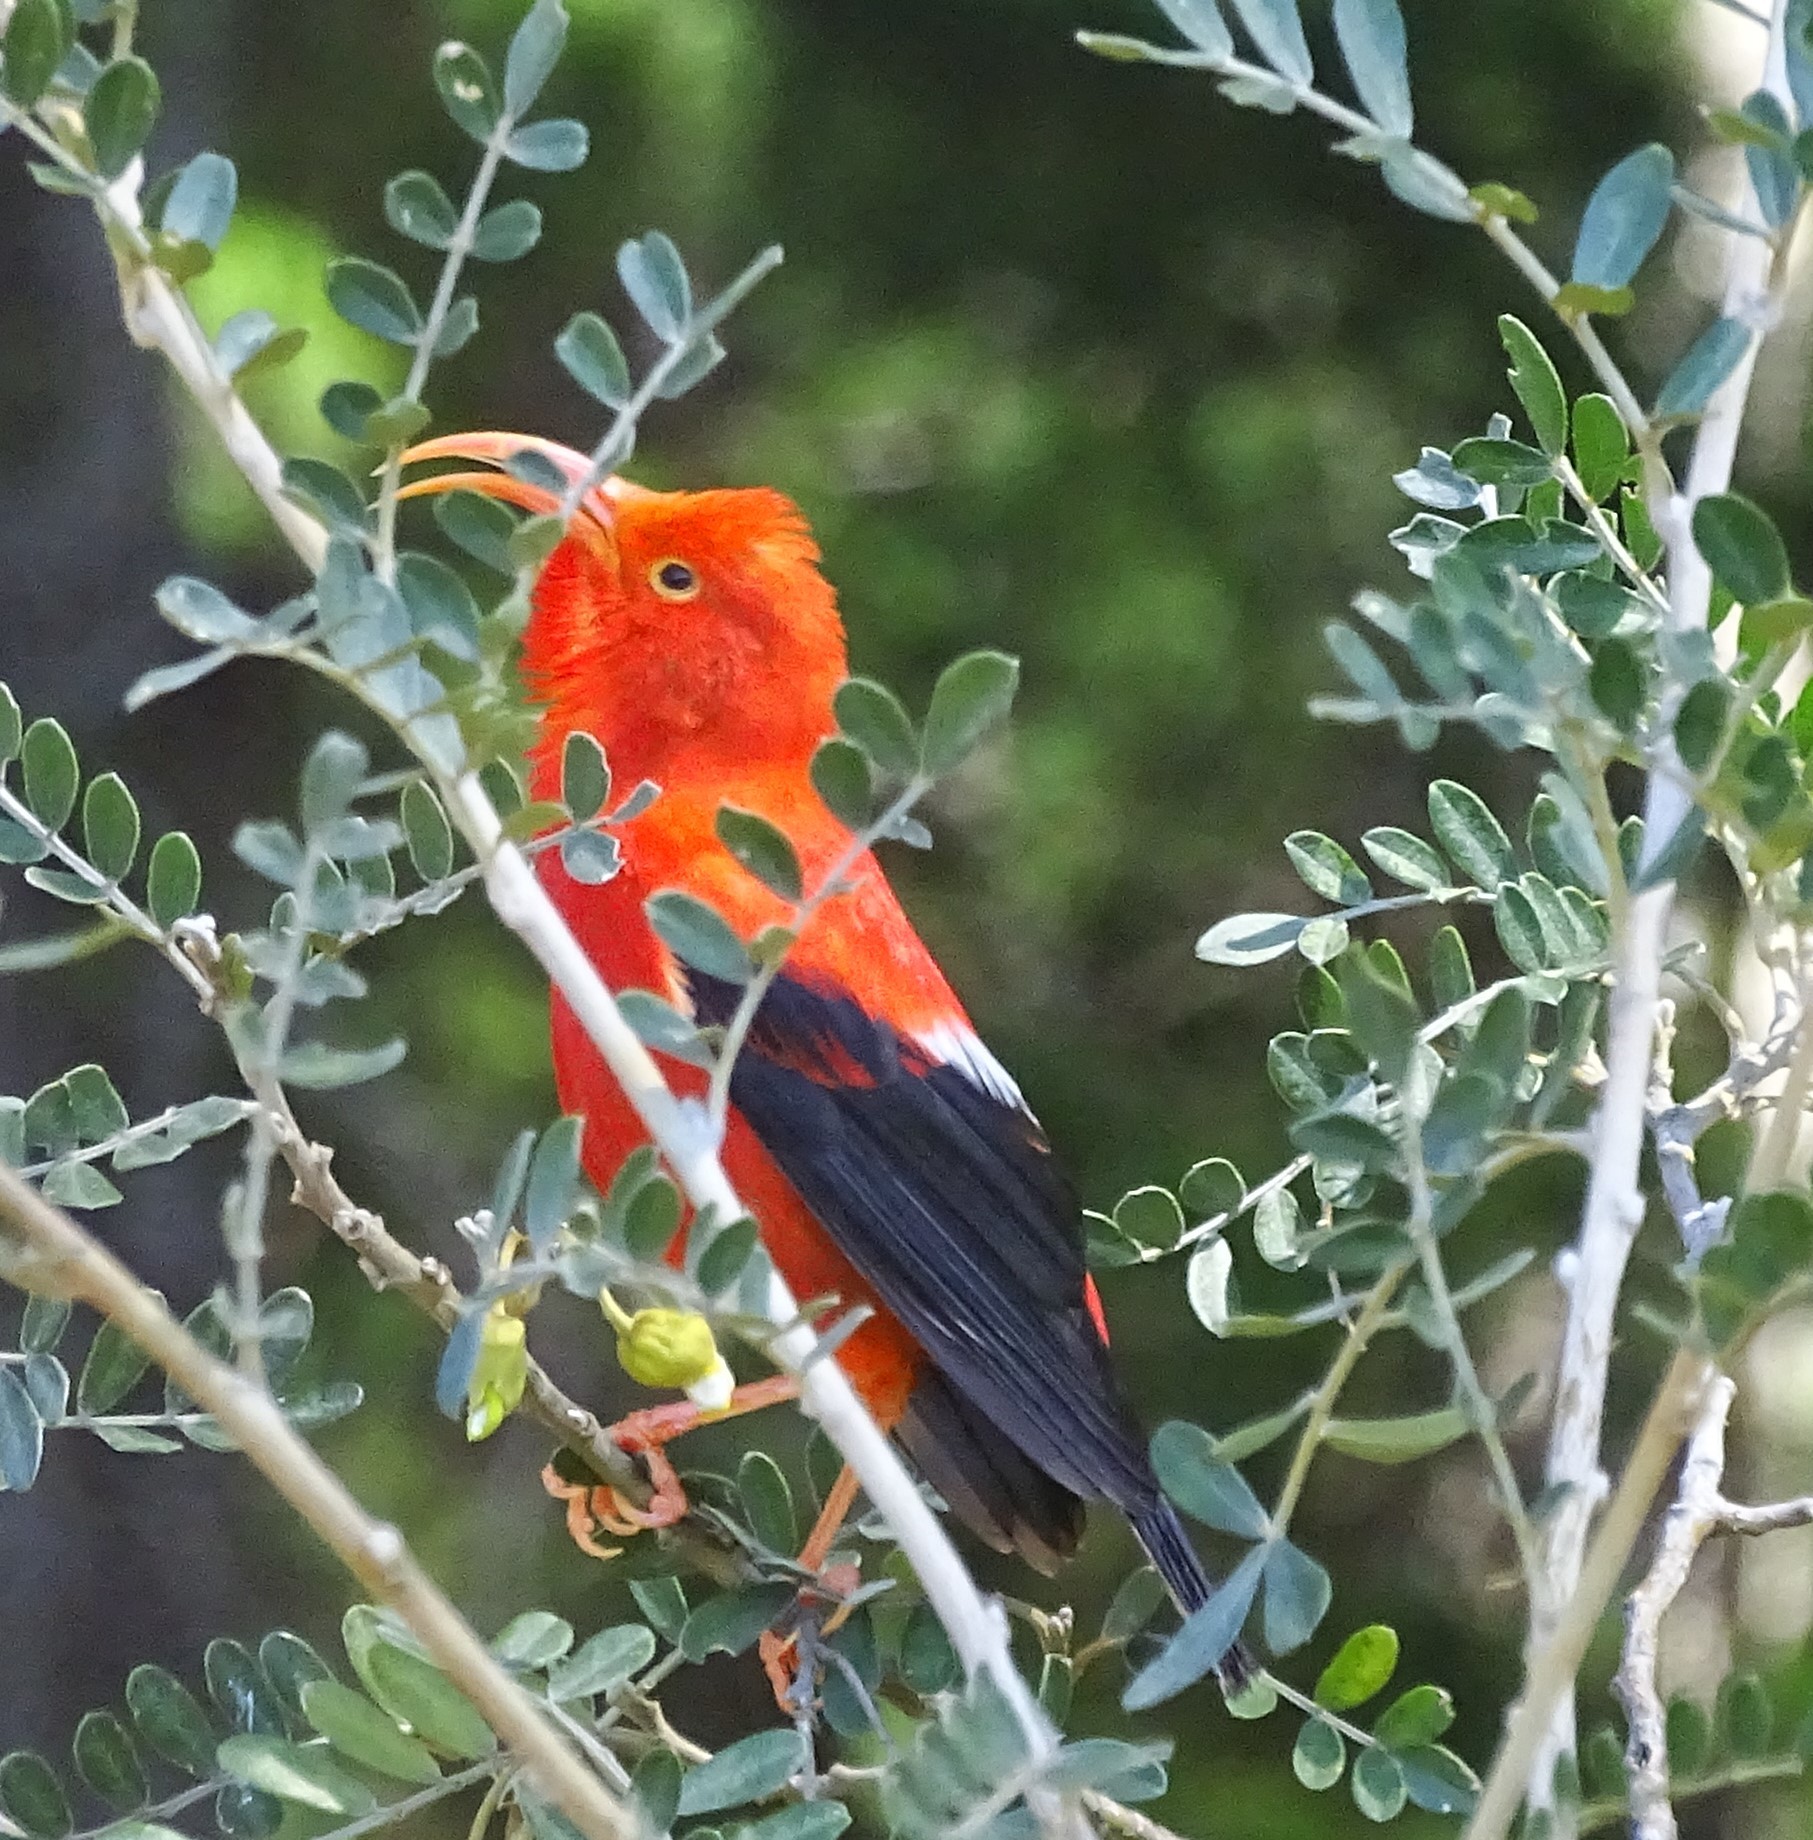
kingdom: Animalia
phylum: Chordata
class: Aves
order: Passeriformes
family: Fringillidae
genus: Vestiaria
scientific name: Vestiaria coccinea
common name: Iiwi
